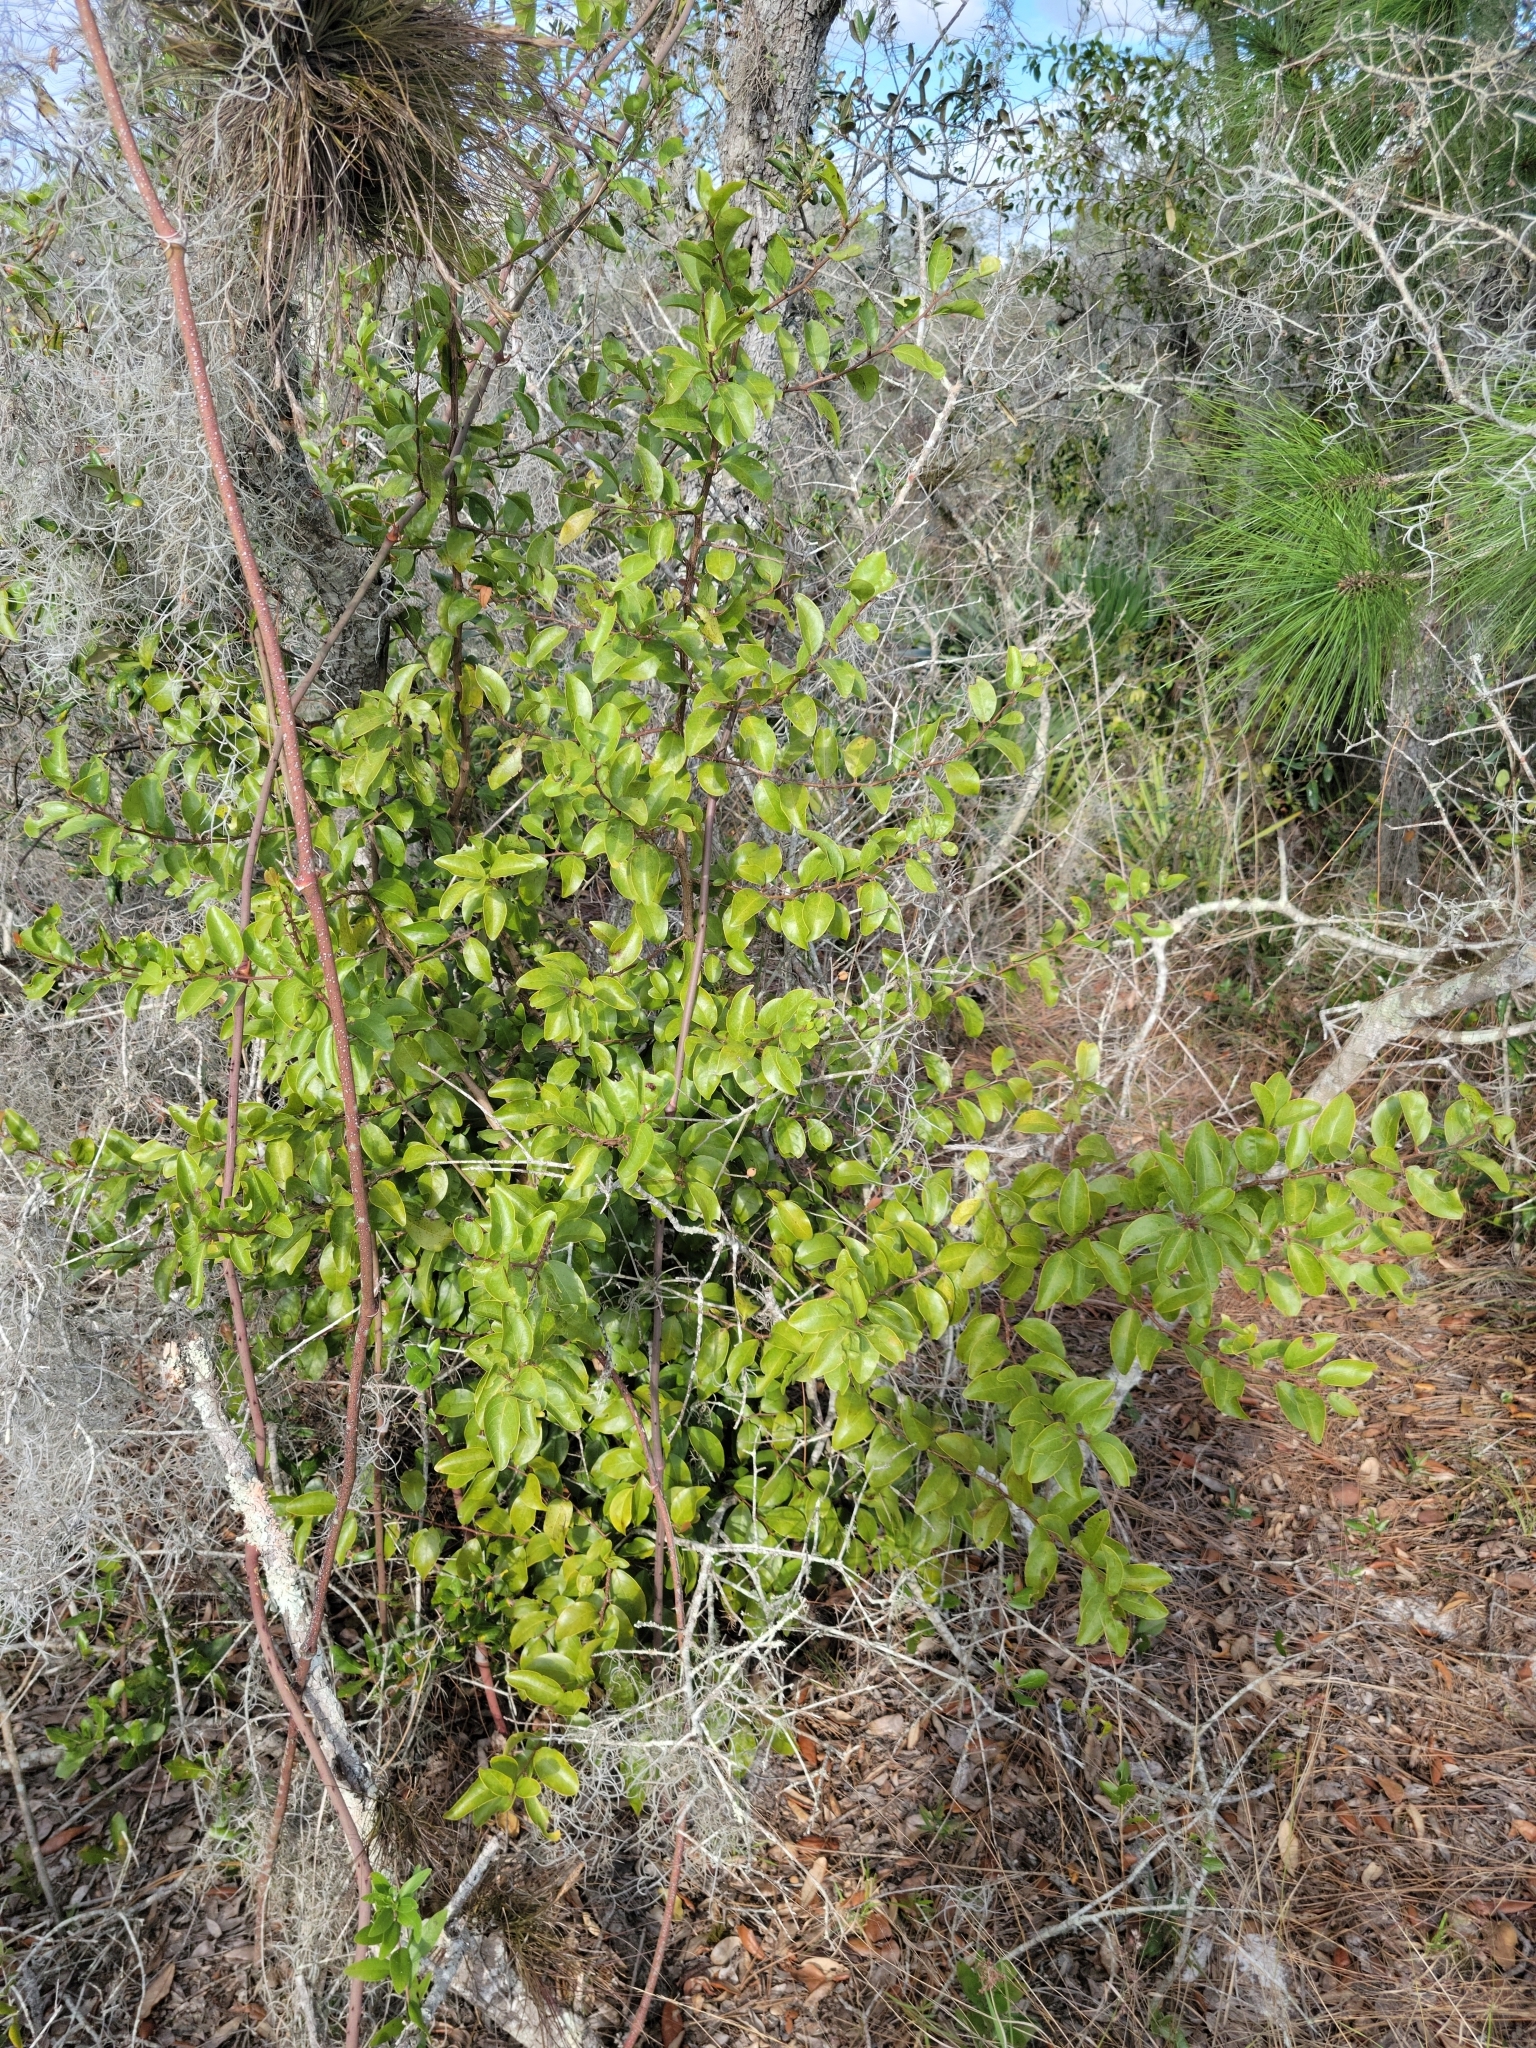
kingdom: Plantae
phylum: Tracheophyta
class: Magnoliopsida
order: Santalales
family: Ximeniaceae
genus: Ximenia
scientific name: Ximenia americana
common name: Tallowwood
